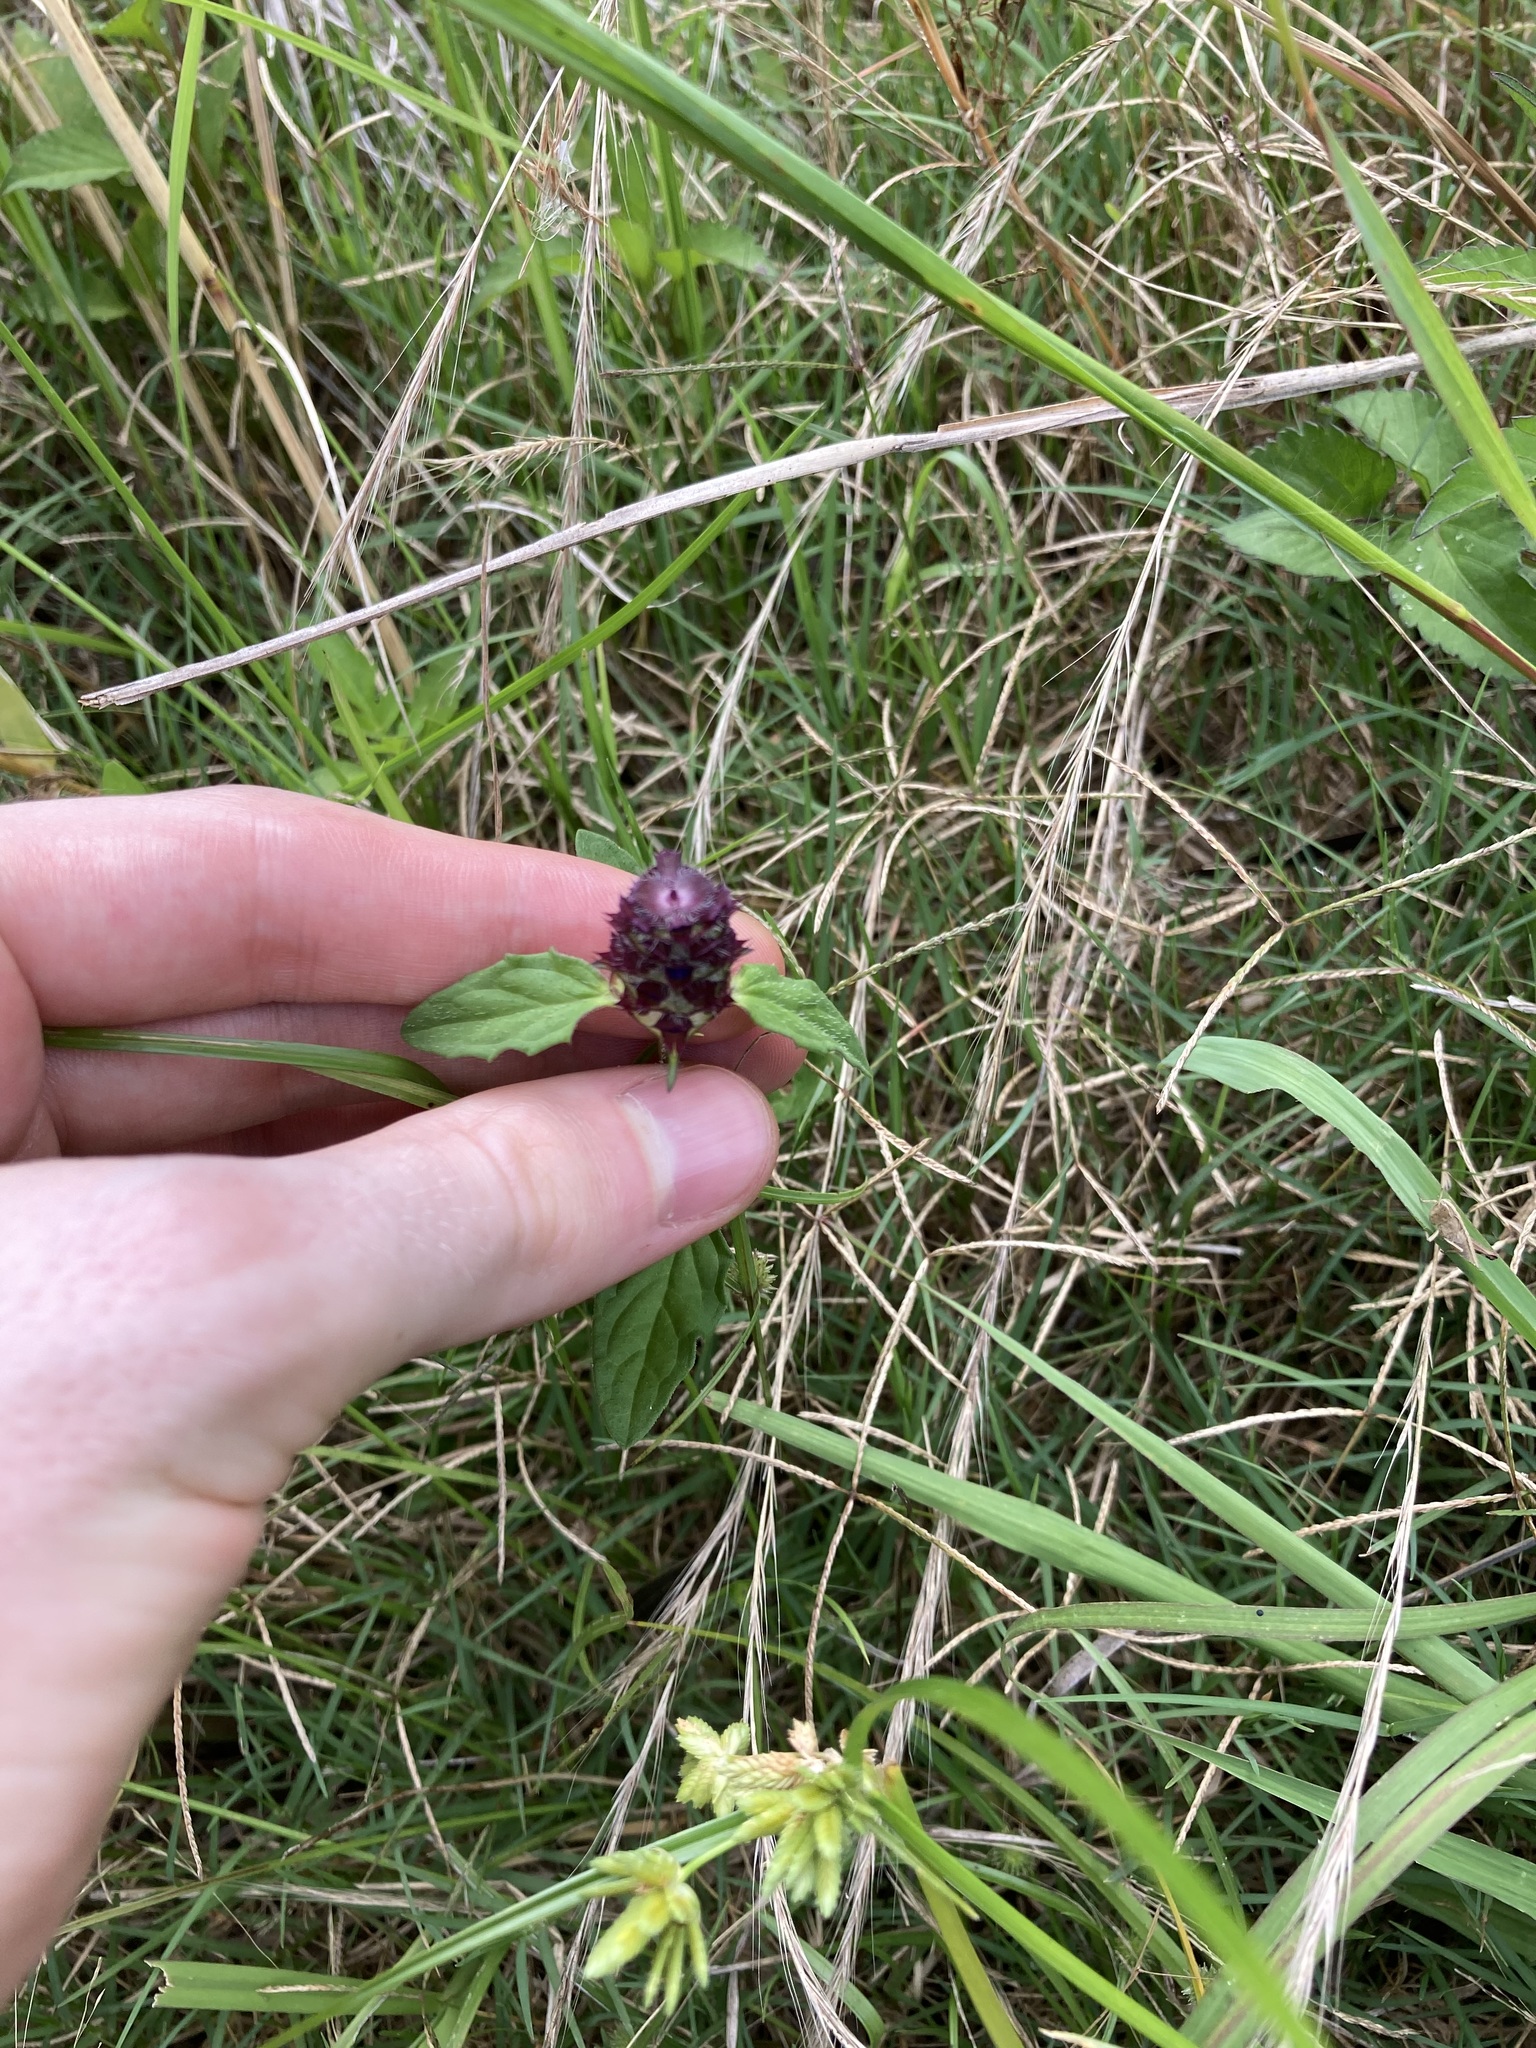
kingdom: Plantae
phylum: Tracheophyta
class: Magnoliopsida
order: Lamiales
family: Lamiaceae
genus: Prunella
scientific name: Prunella vulgaris
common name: Heal-all
